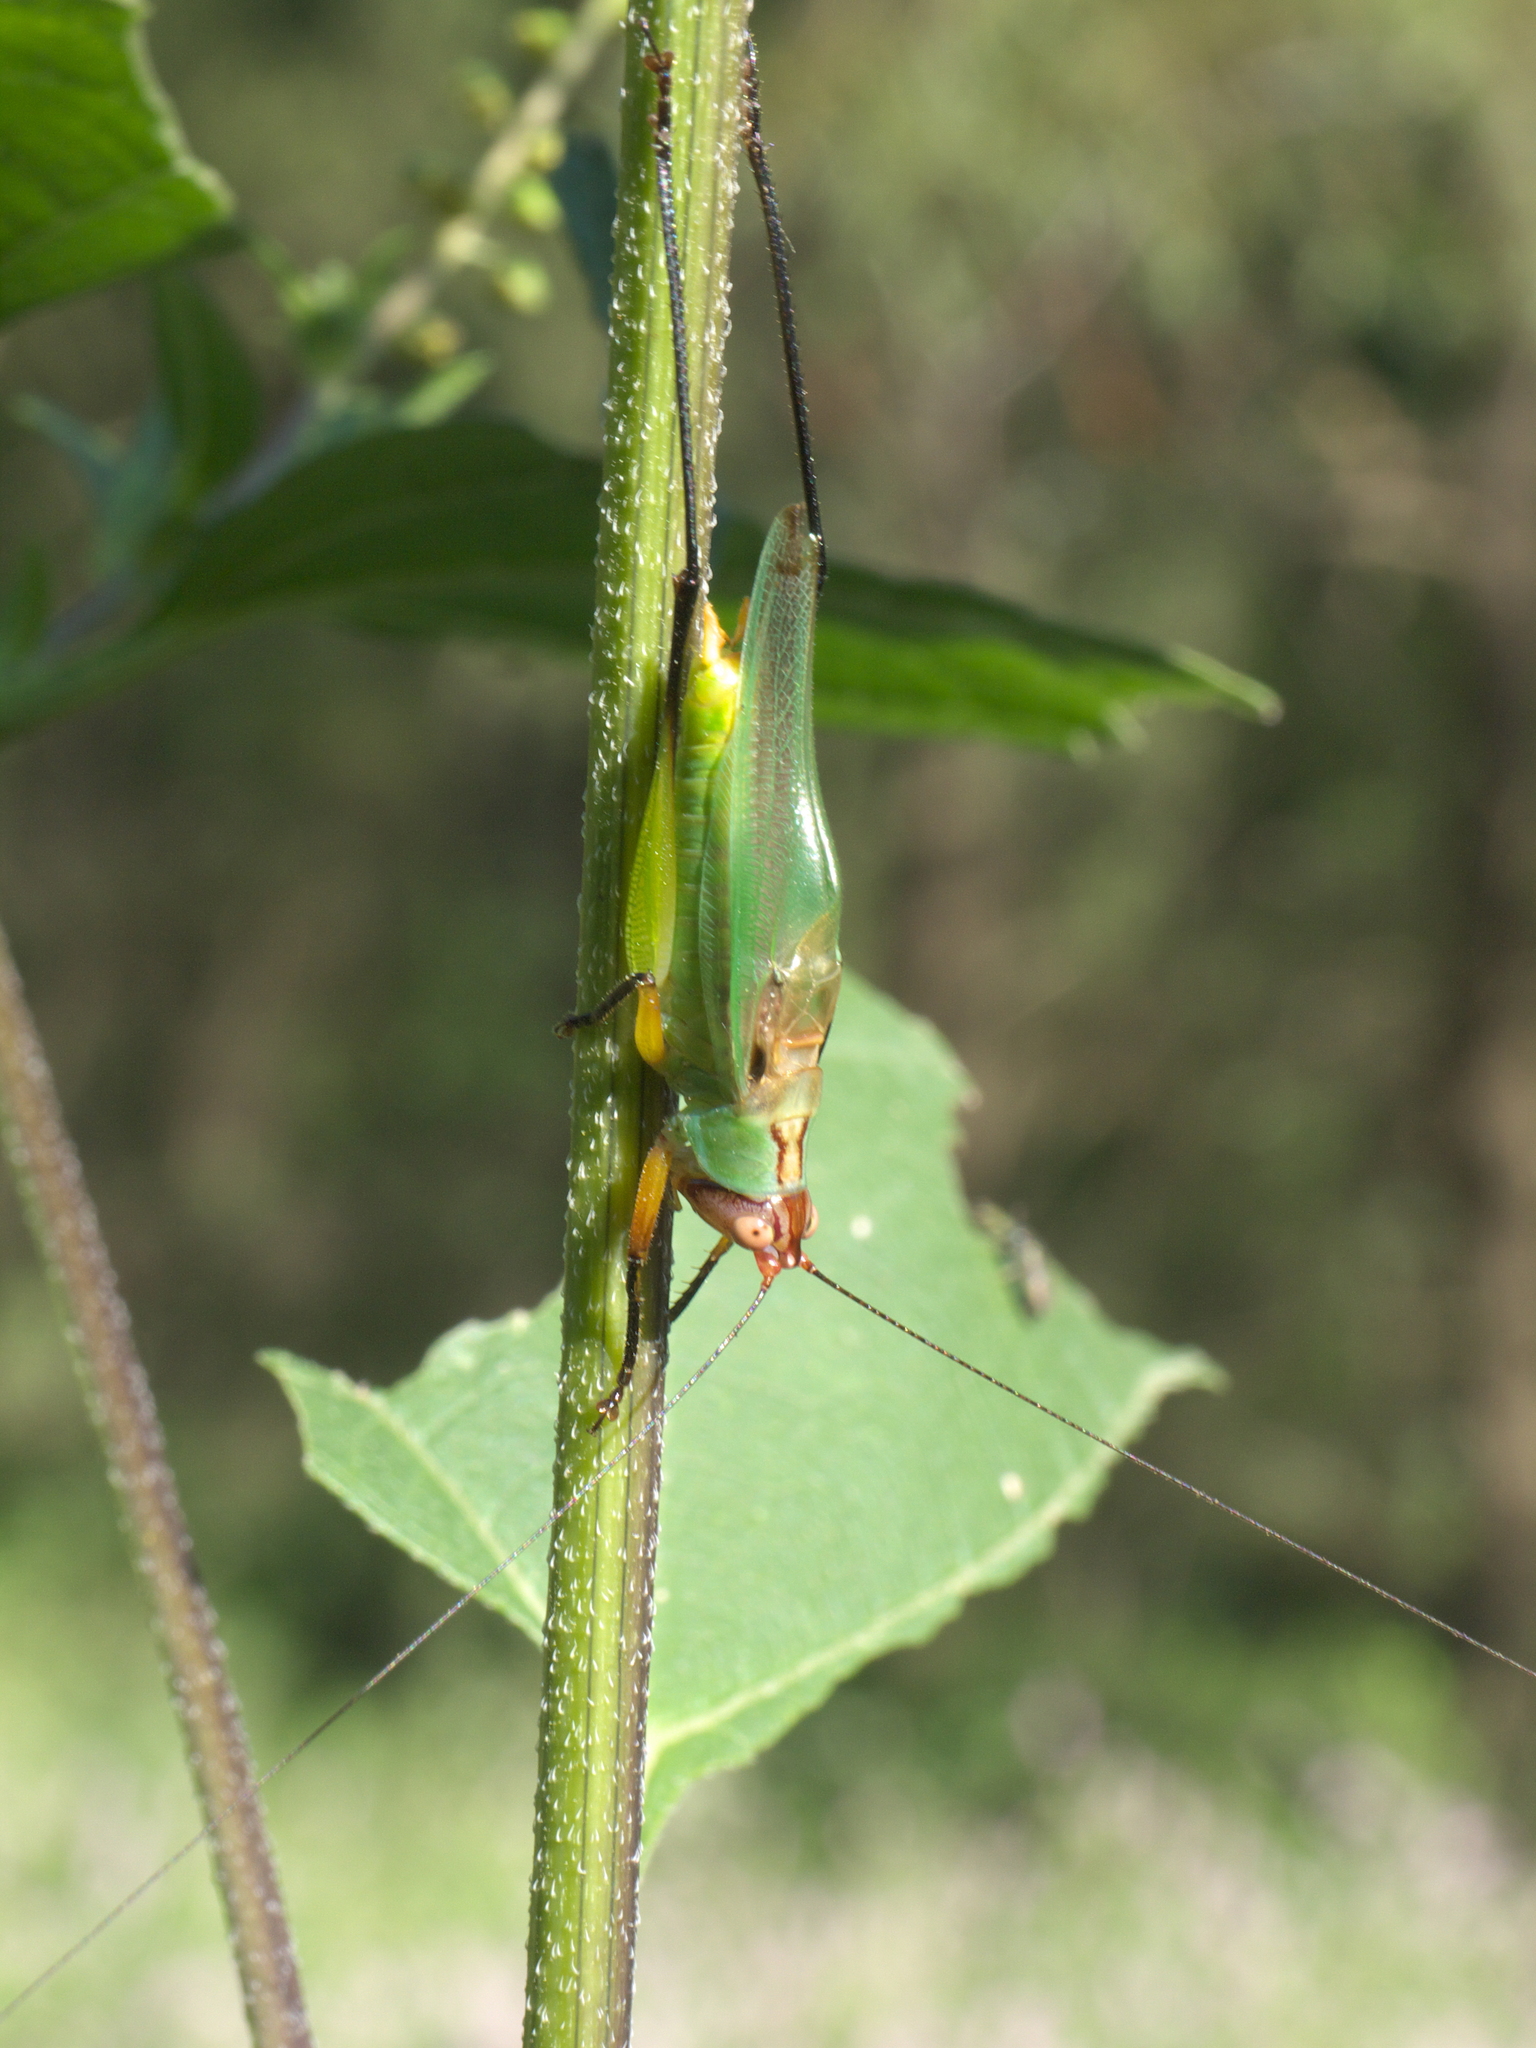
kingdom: Animalia
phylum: Arthropoda
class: Insecta
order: Orthoptera
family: Tettigoniidae
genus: Orchelimum
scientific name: Orchelimum nigripes
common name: Black-legged meadow katydid
